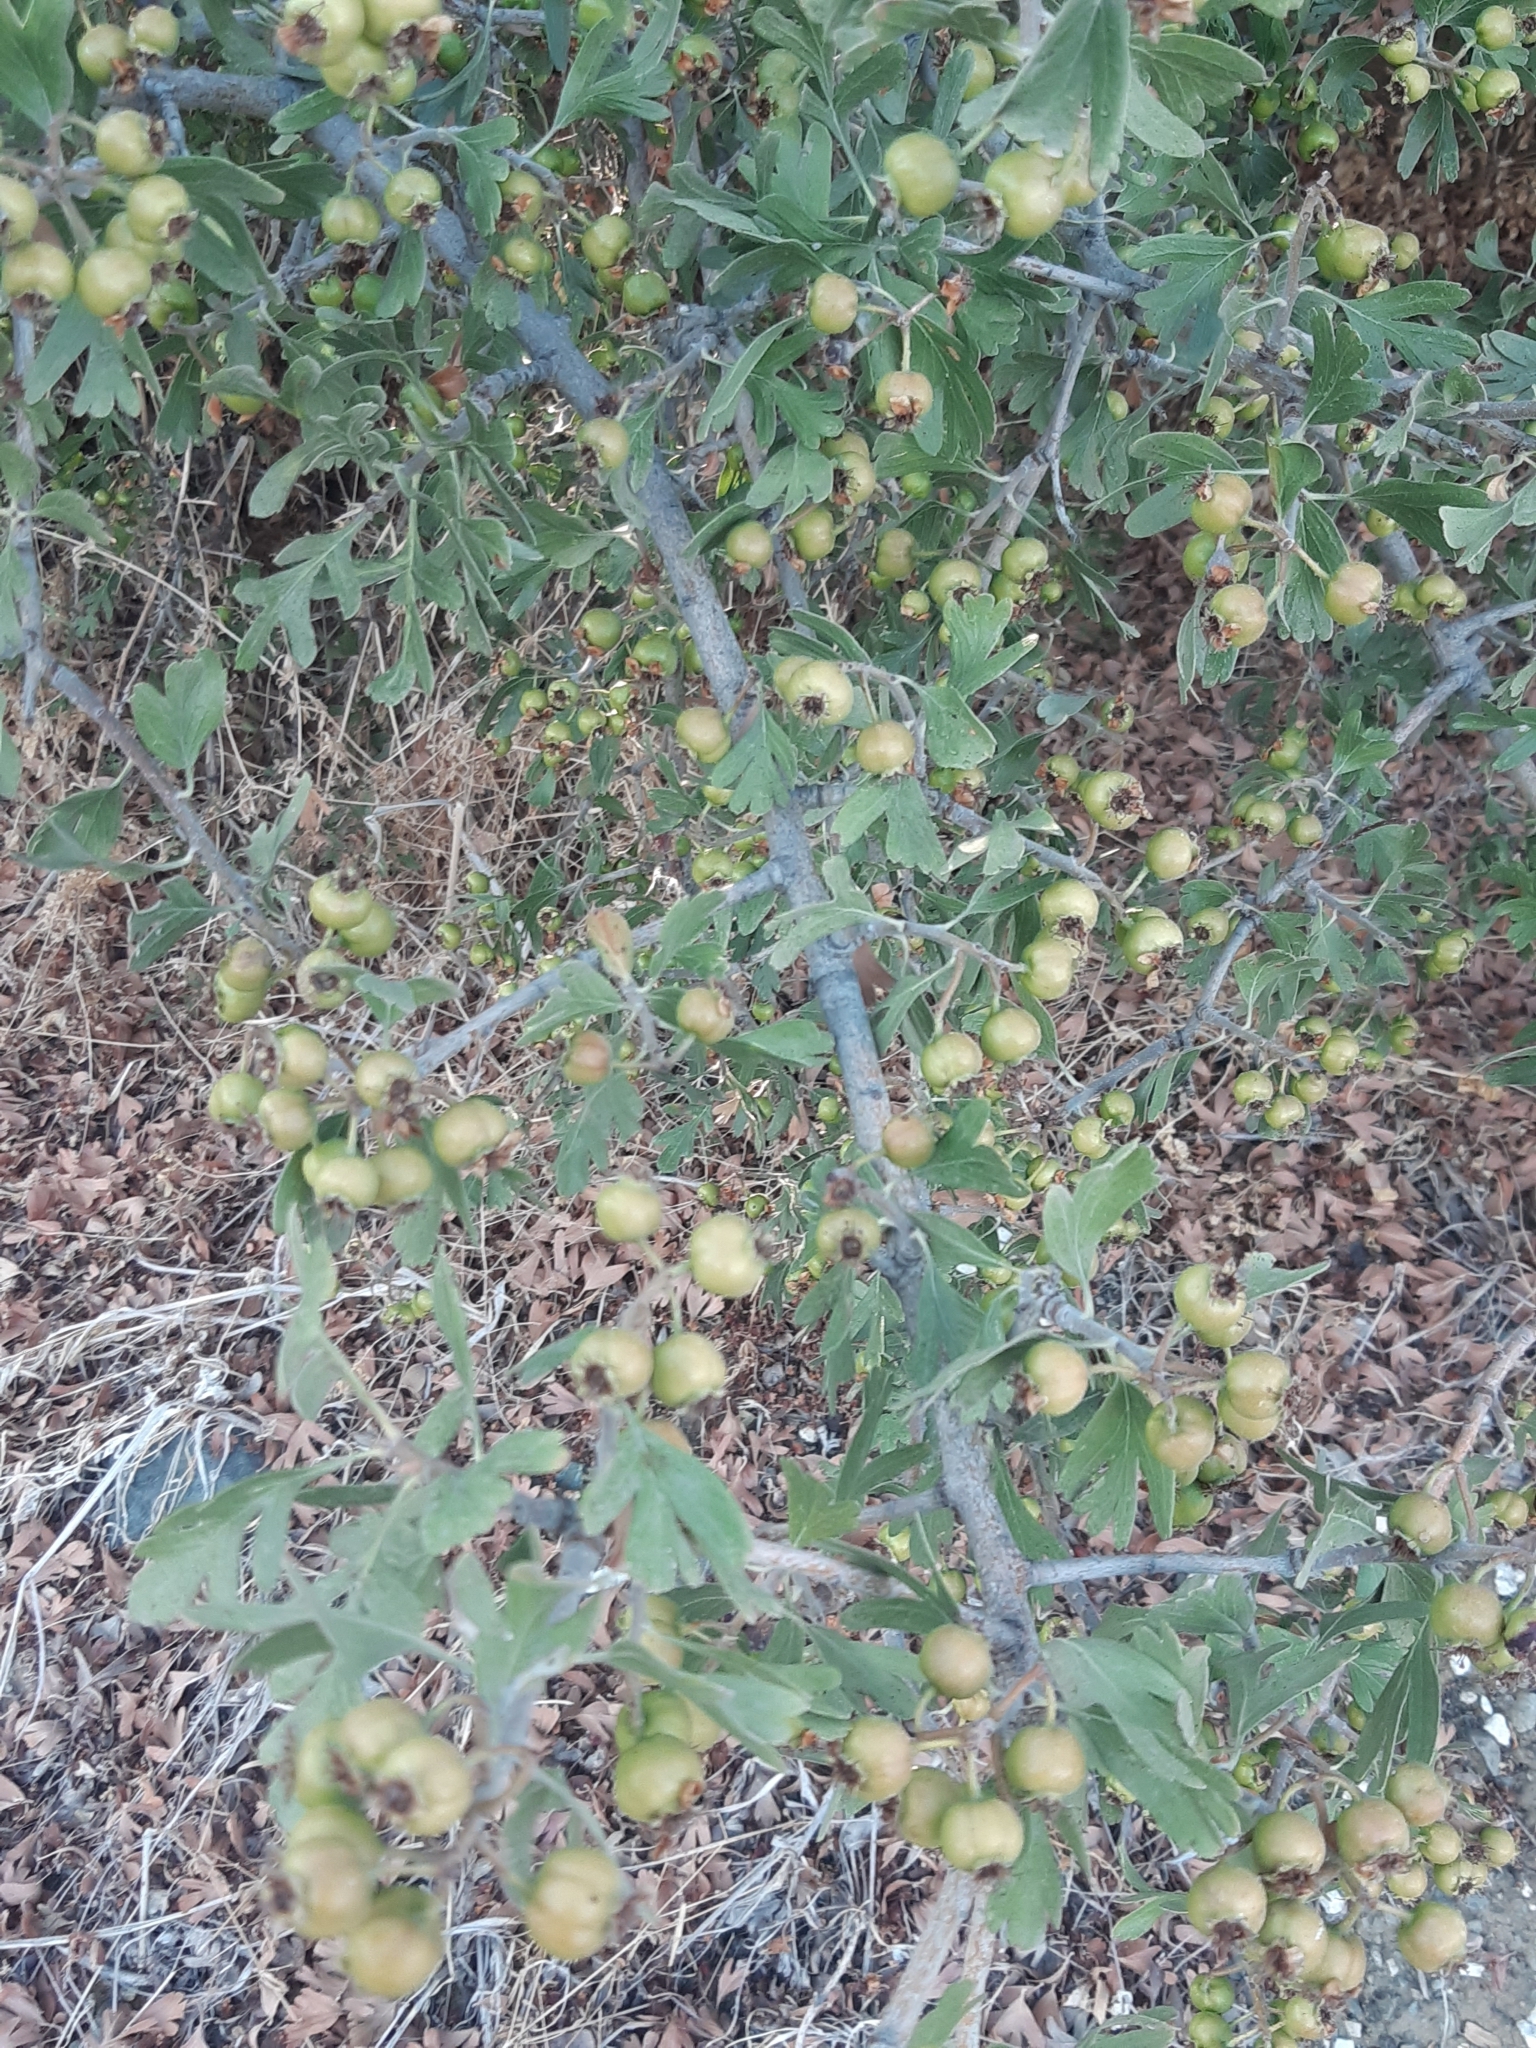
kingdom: Plantae
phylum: Tracheophyta
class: Magnoliopsida
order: Rosales
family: Rosaceae
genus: Crataegus
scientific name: Crataegus azarolus
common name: Azarole
